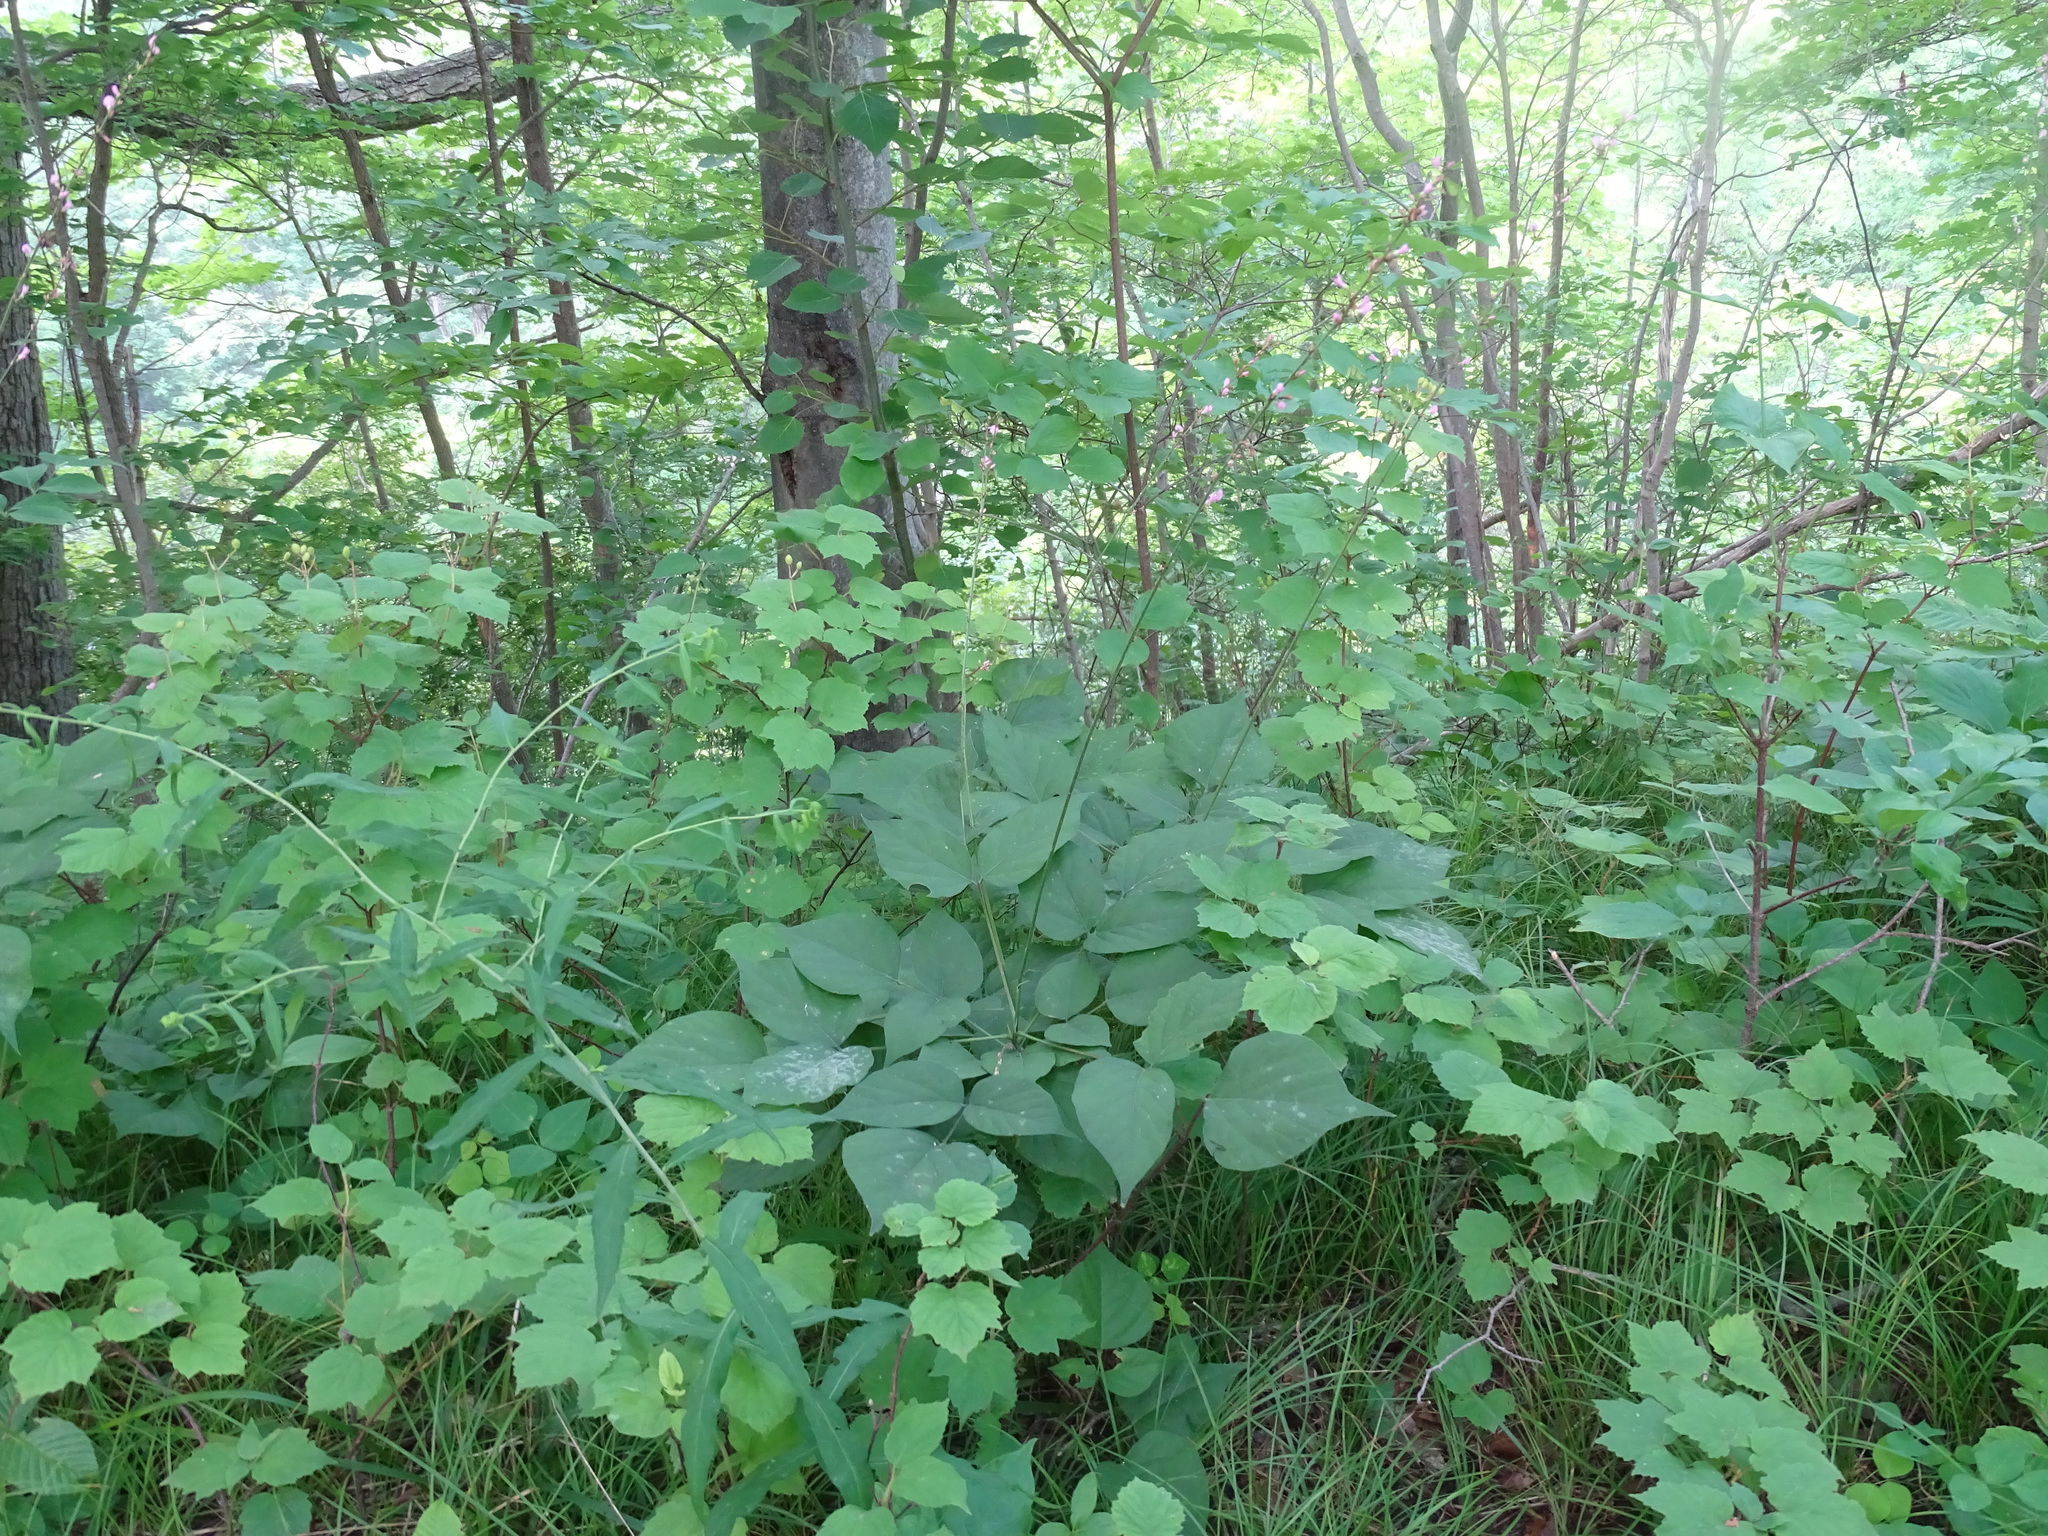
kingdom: Plantae
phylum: Tracheophyta
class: Magnoliopsida
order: Fabales
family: Fabaceae
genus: Hylodesmum
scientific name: Hylodesmum glutinosum
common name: Clustered-leaved tick-trefoil
